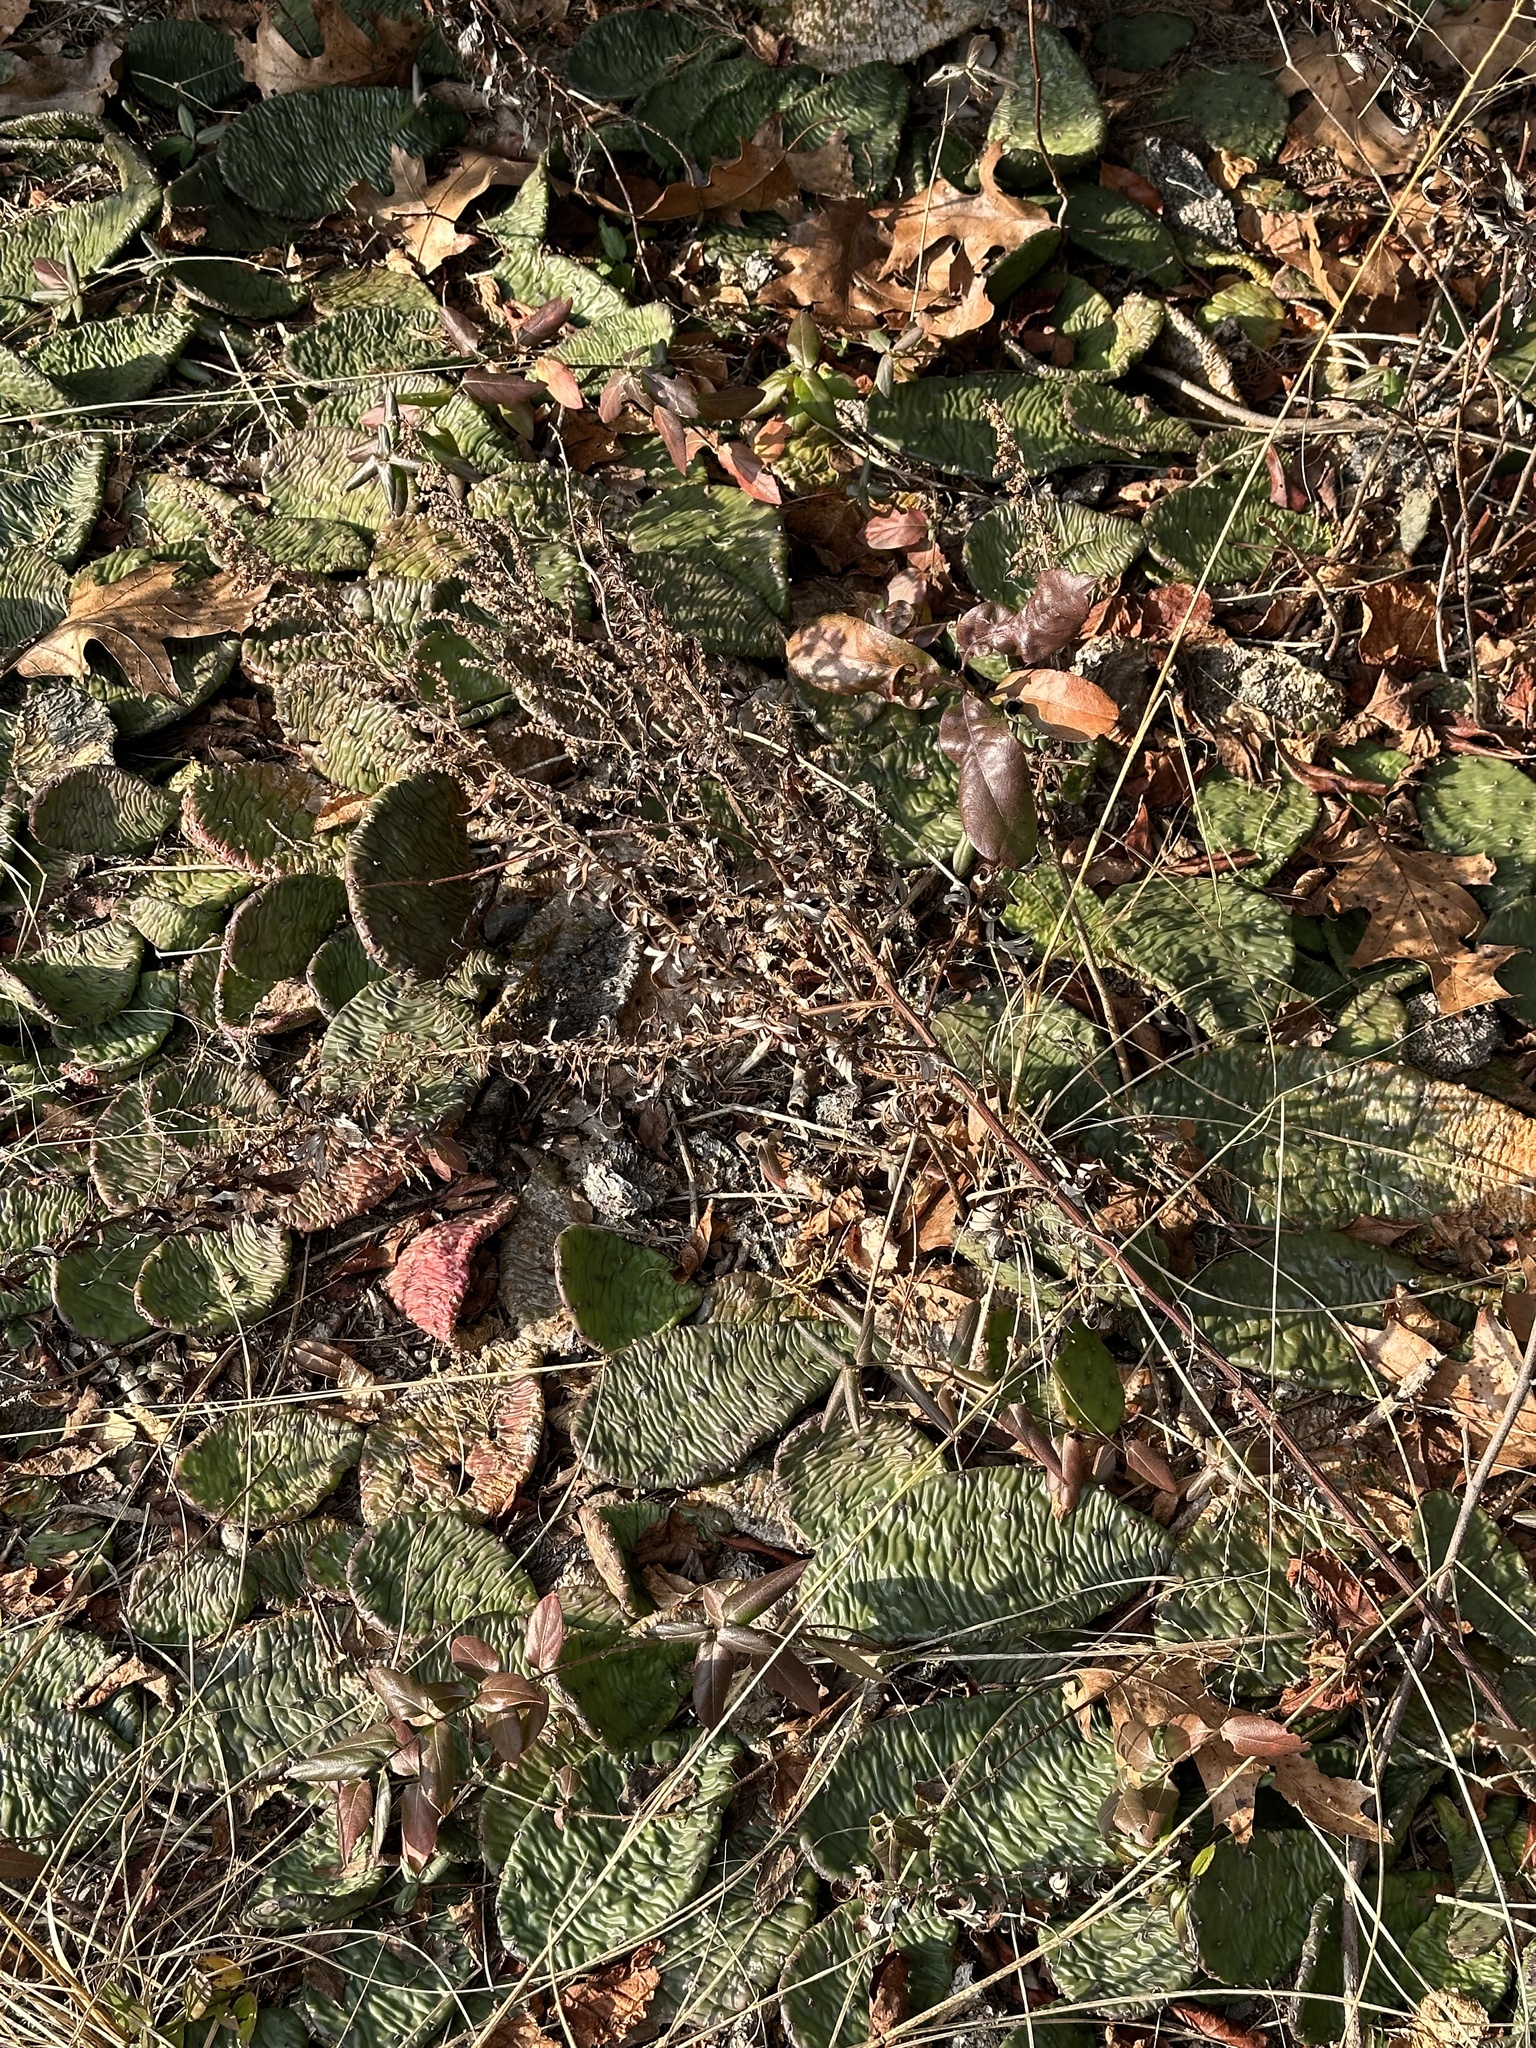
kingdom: Plantae
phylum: Tracheophyta
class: Magnoliopsida
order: Caryophyllales
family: Cactaceae
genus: Opuntia
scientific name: Opuntia humifusa
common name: Eastern prickly-pear
